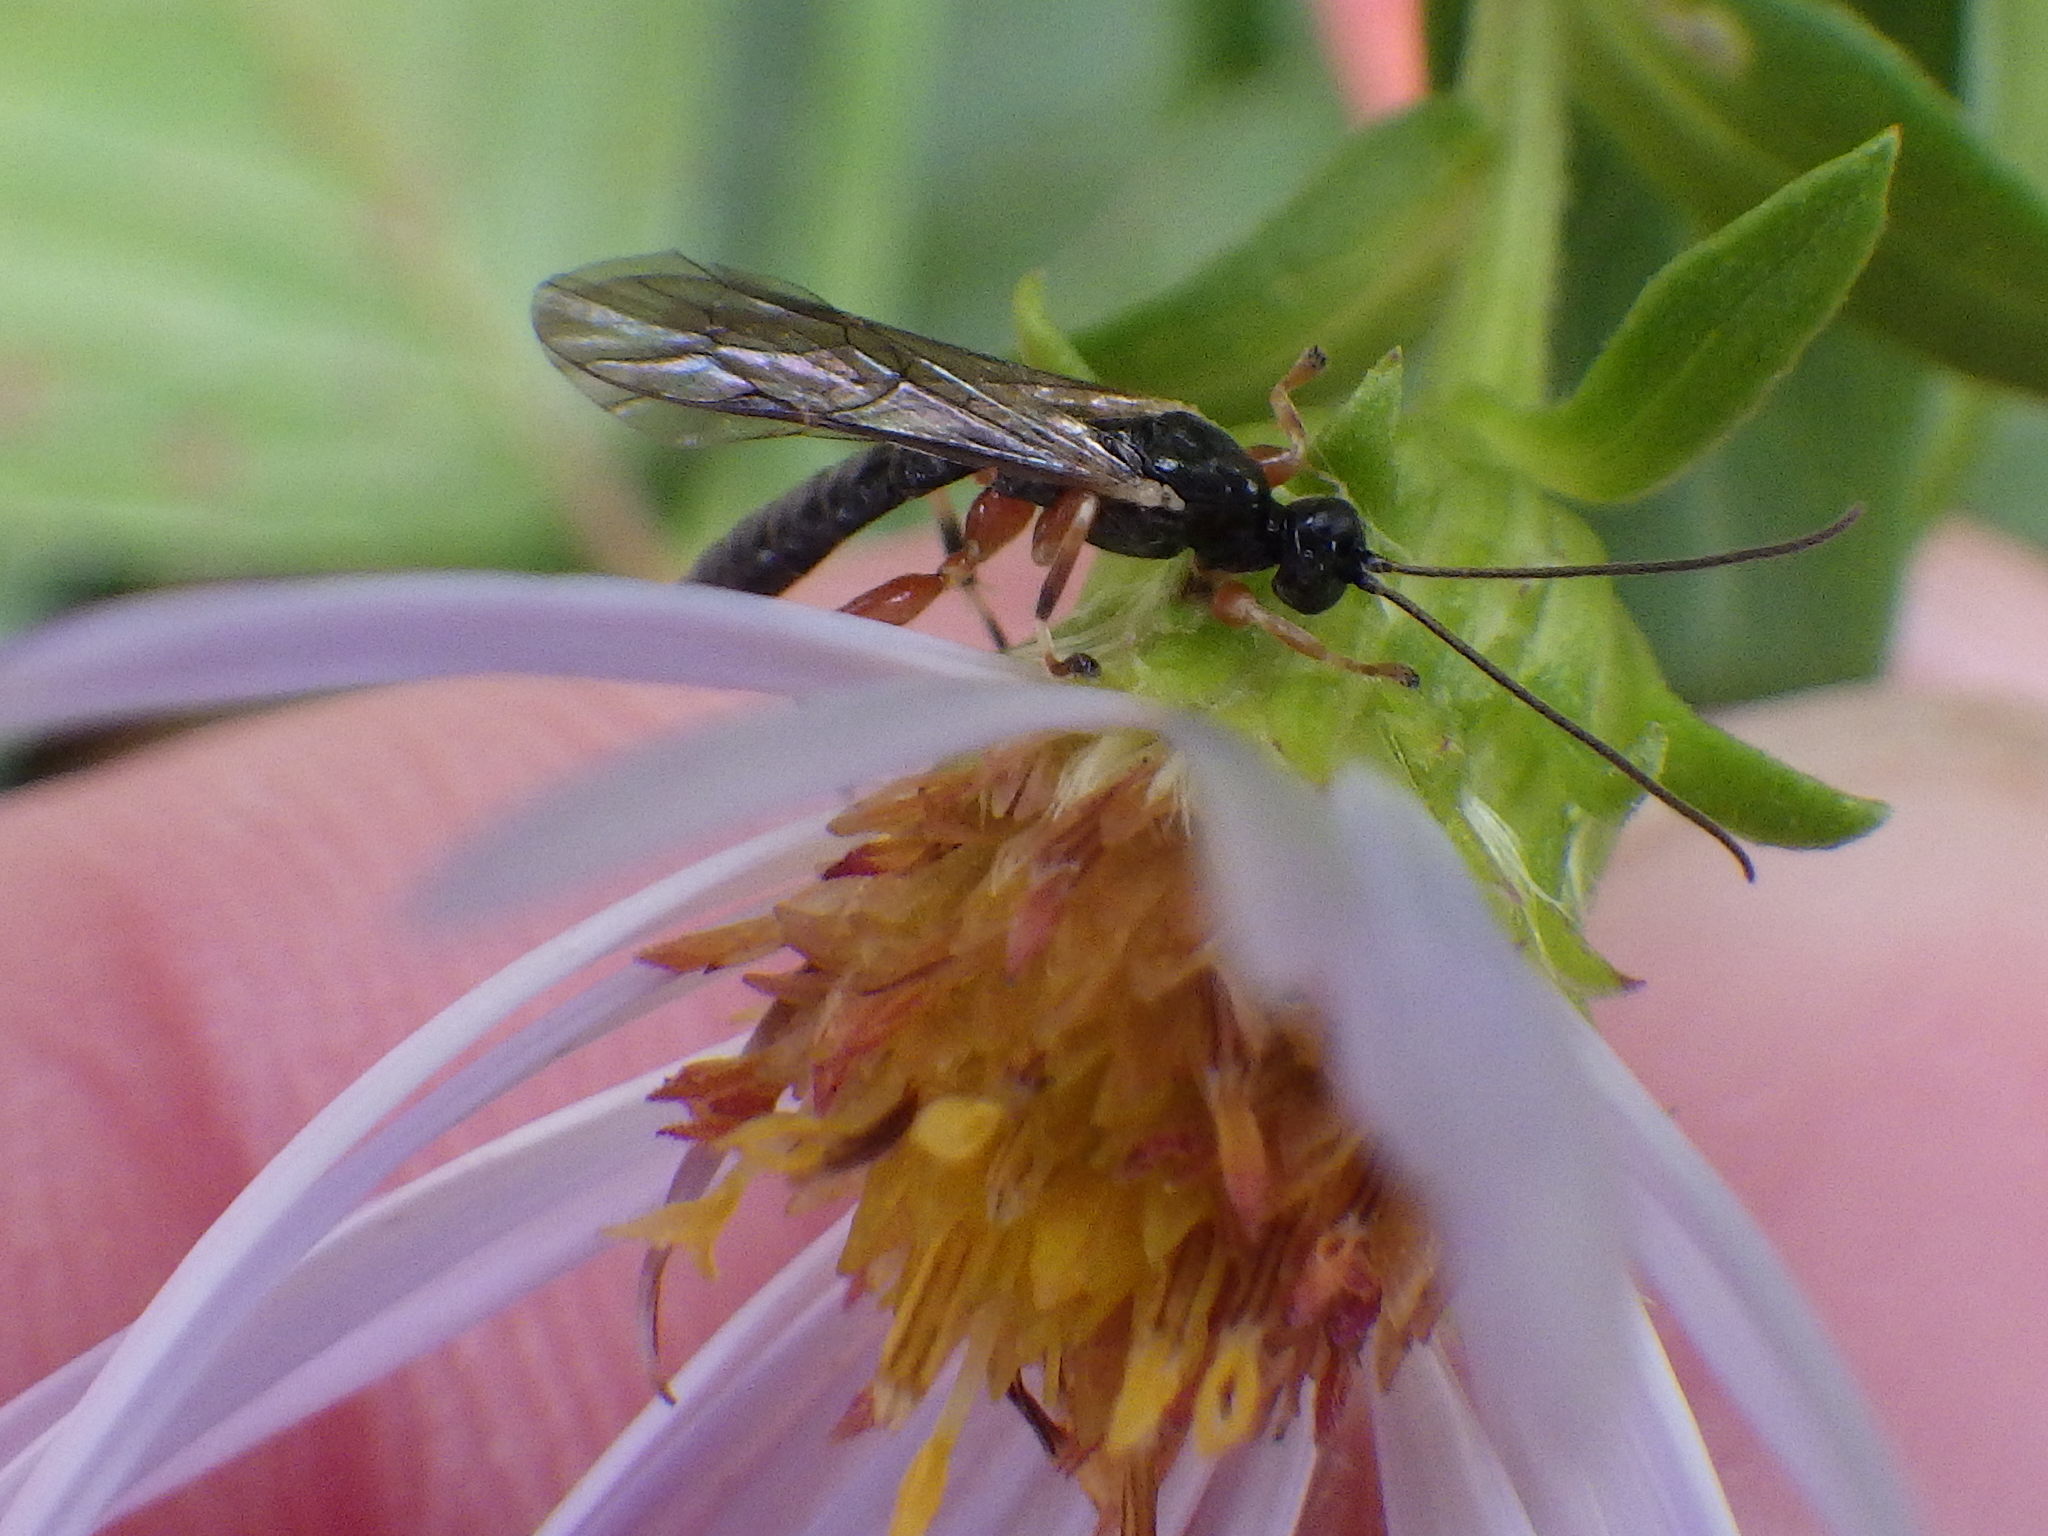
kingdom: Animalia
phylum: Arthropoda
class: Insecta
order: Hymenoptera
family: Ichneumonidae
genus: Schizopyga
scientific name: Schizopyga frigida
